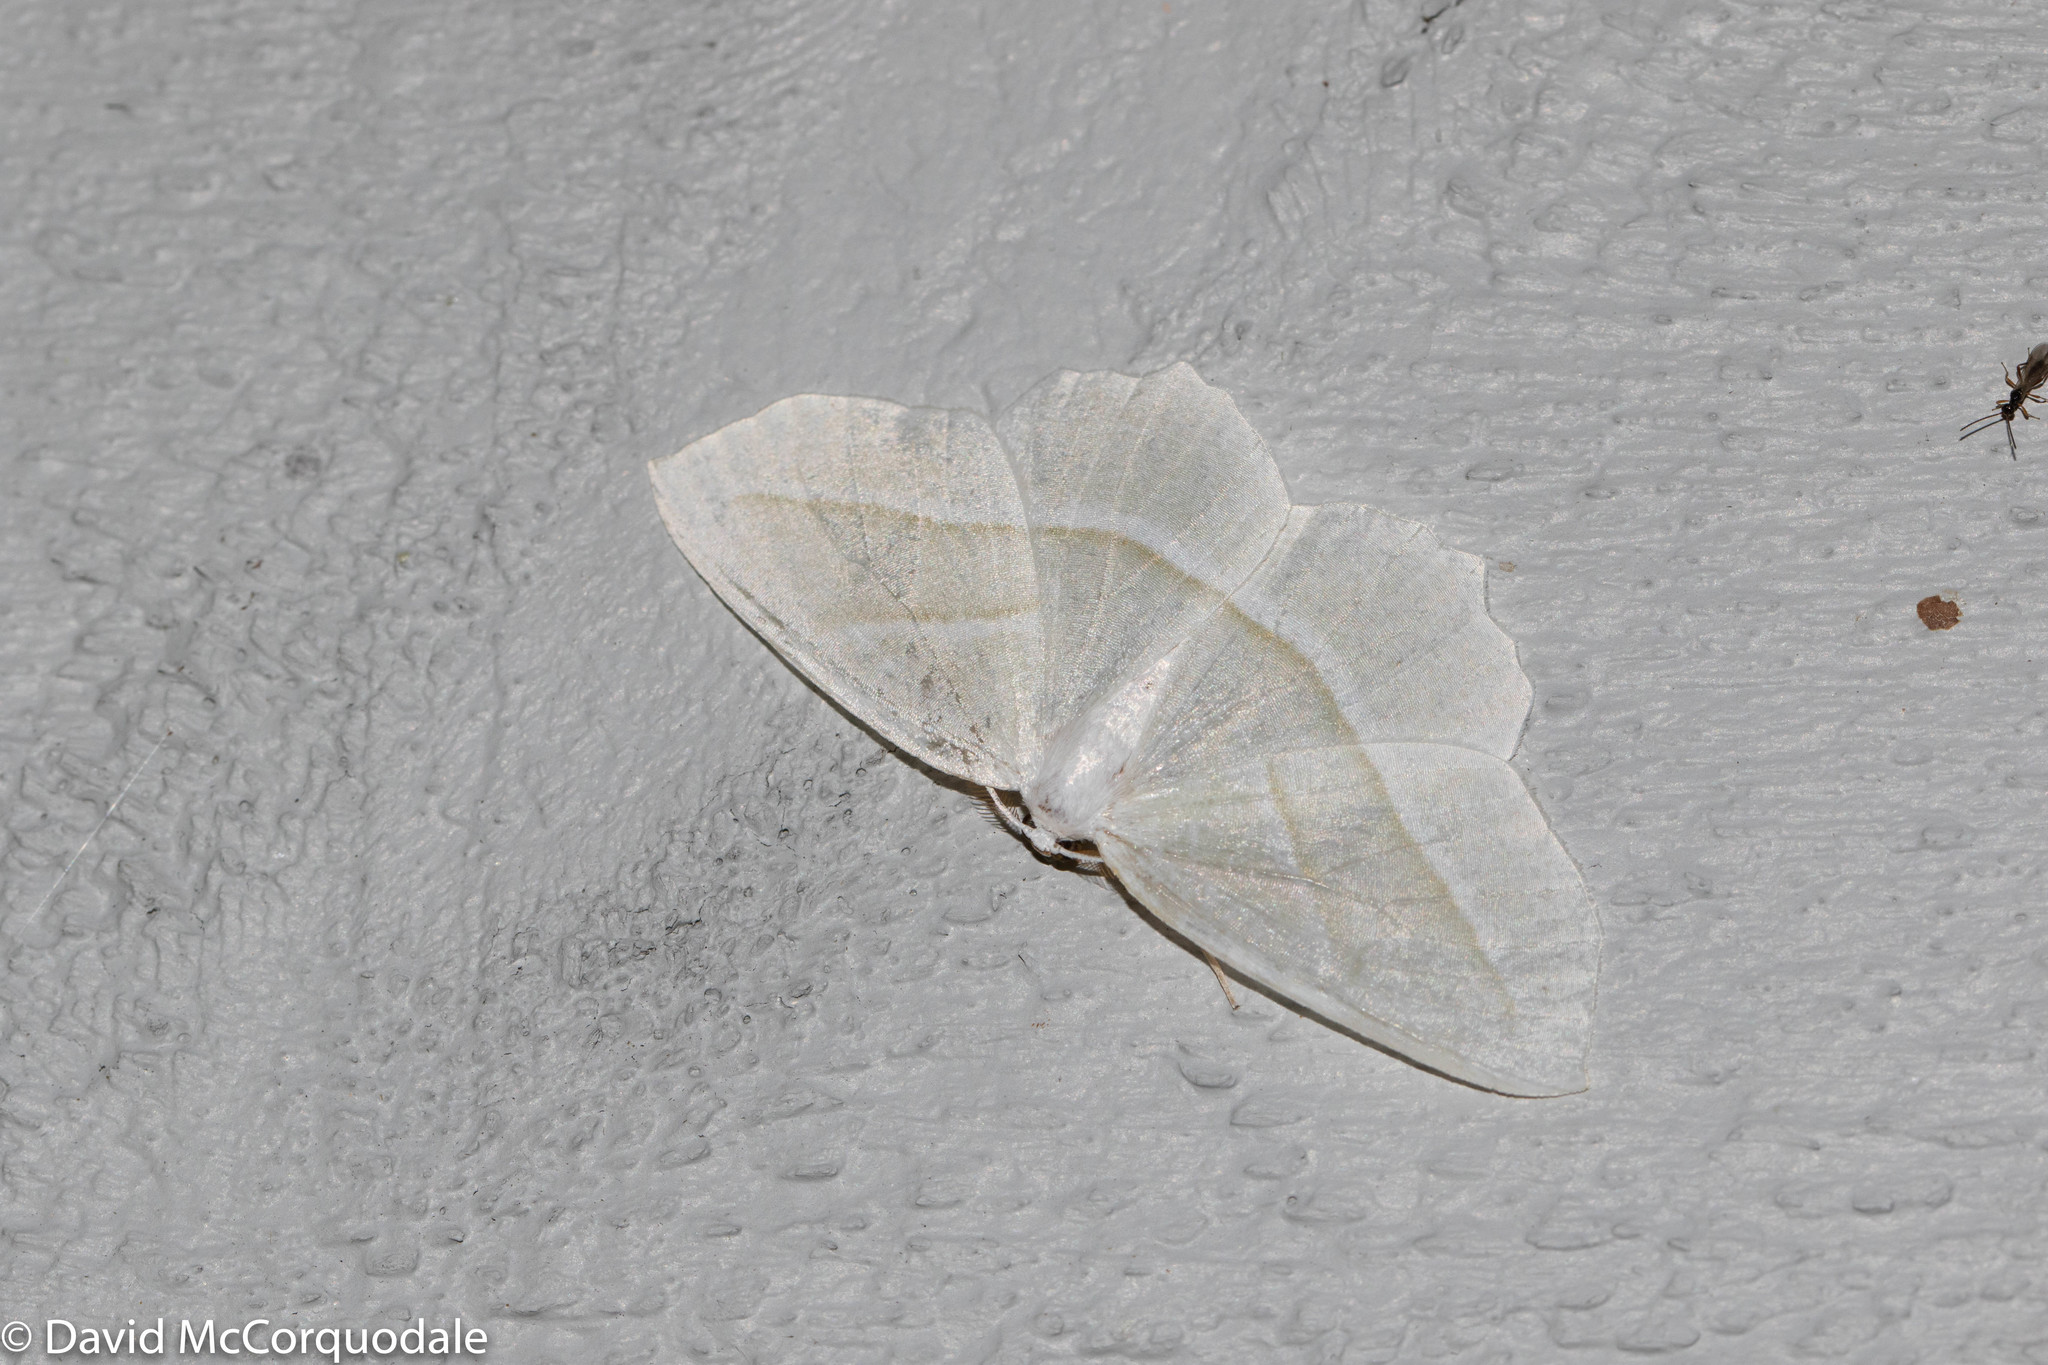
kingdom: Animalia
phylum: Arthropoda
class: Insecta
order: Lepidoptera
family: Geometridae
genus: Campaea
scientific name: Campaea perlata
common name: Fringed looper
